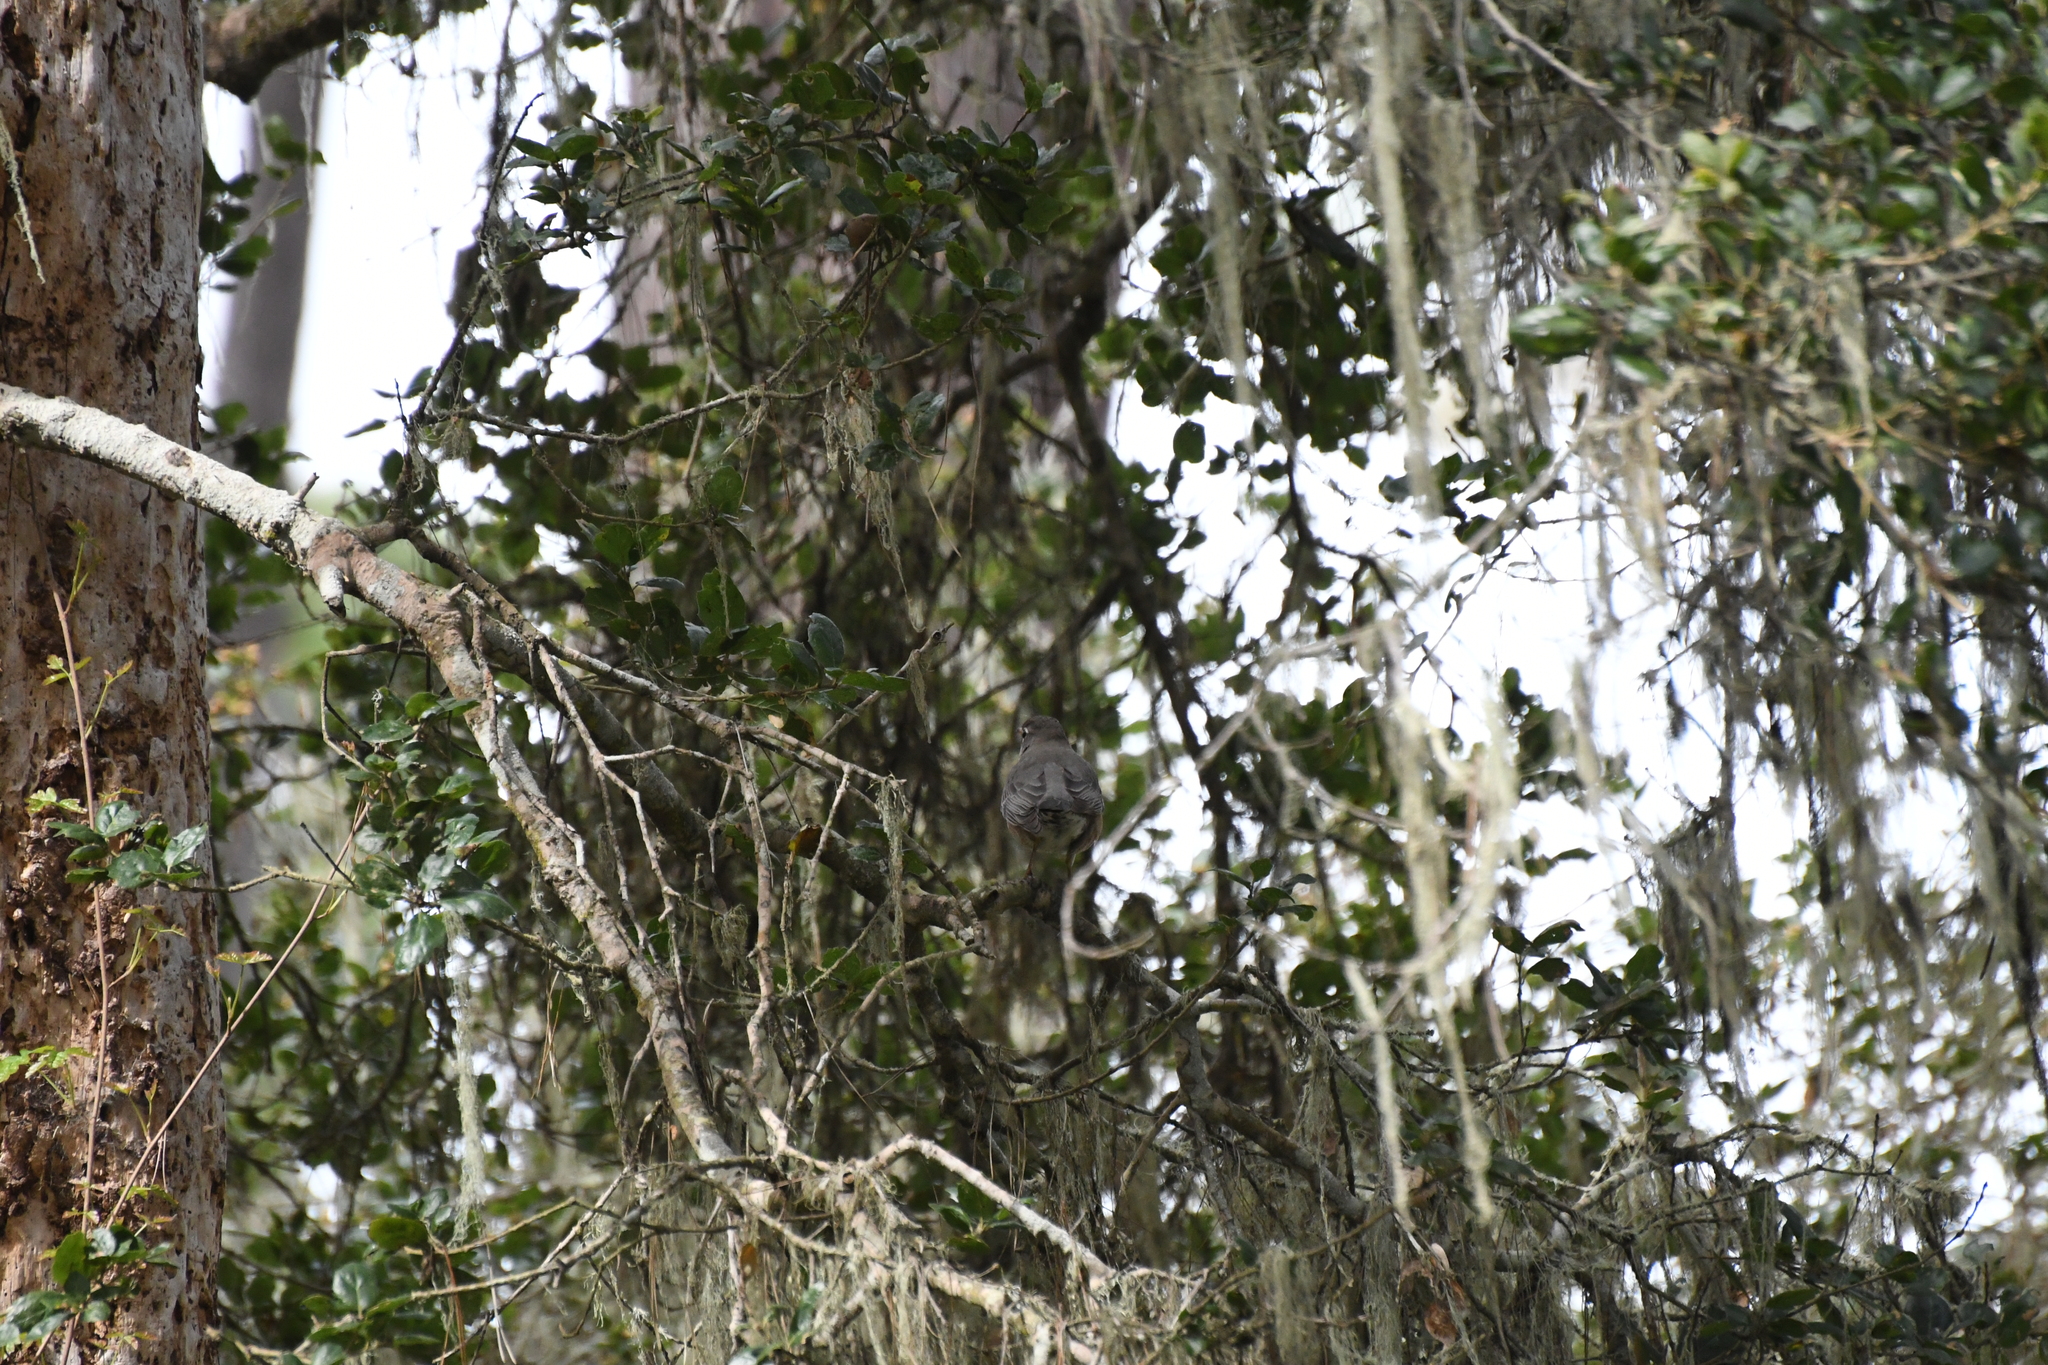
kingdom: Animalia
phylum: Chordata
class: Aves
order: Passeriformes
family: Turdidae
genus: Turdus
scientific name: Turdus migratorius
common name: American robin
